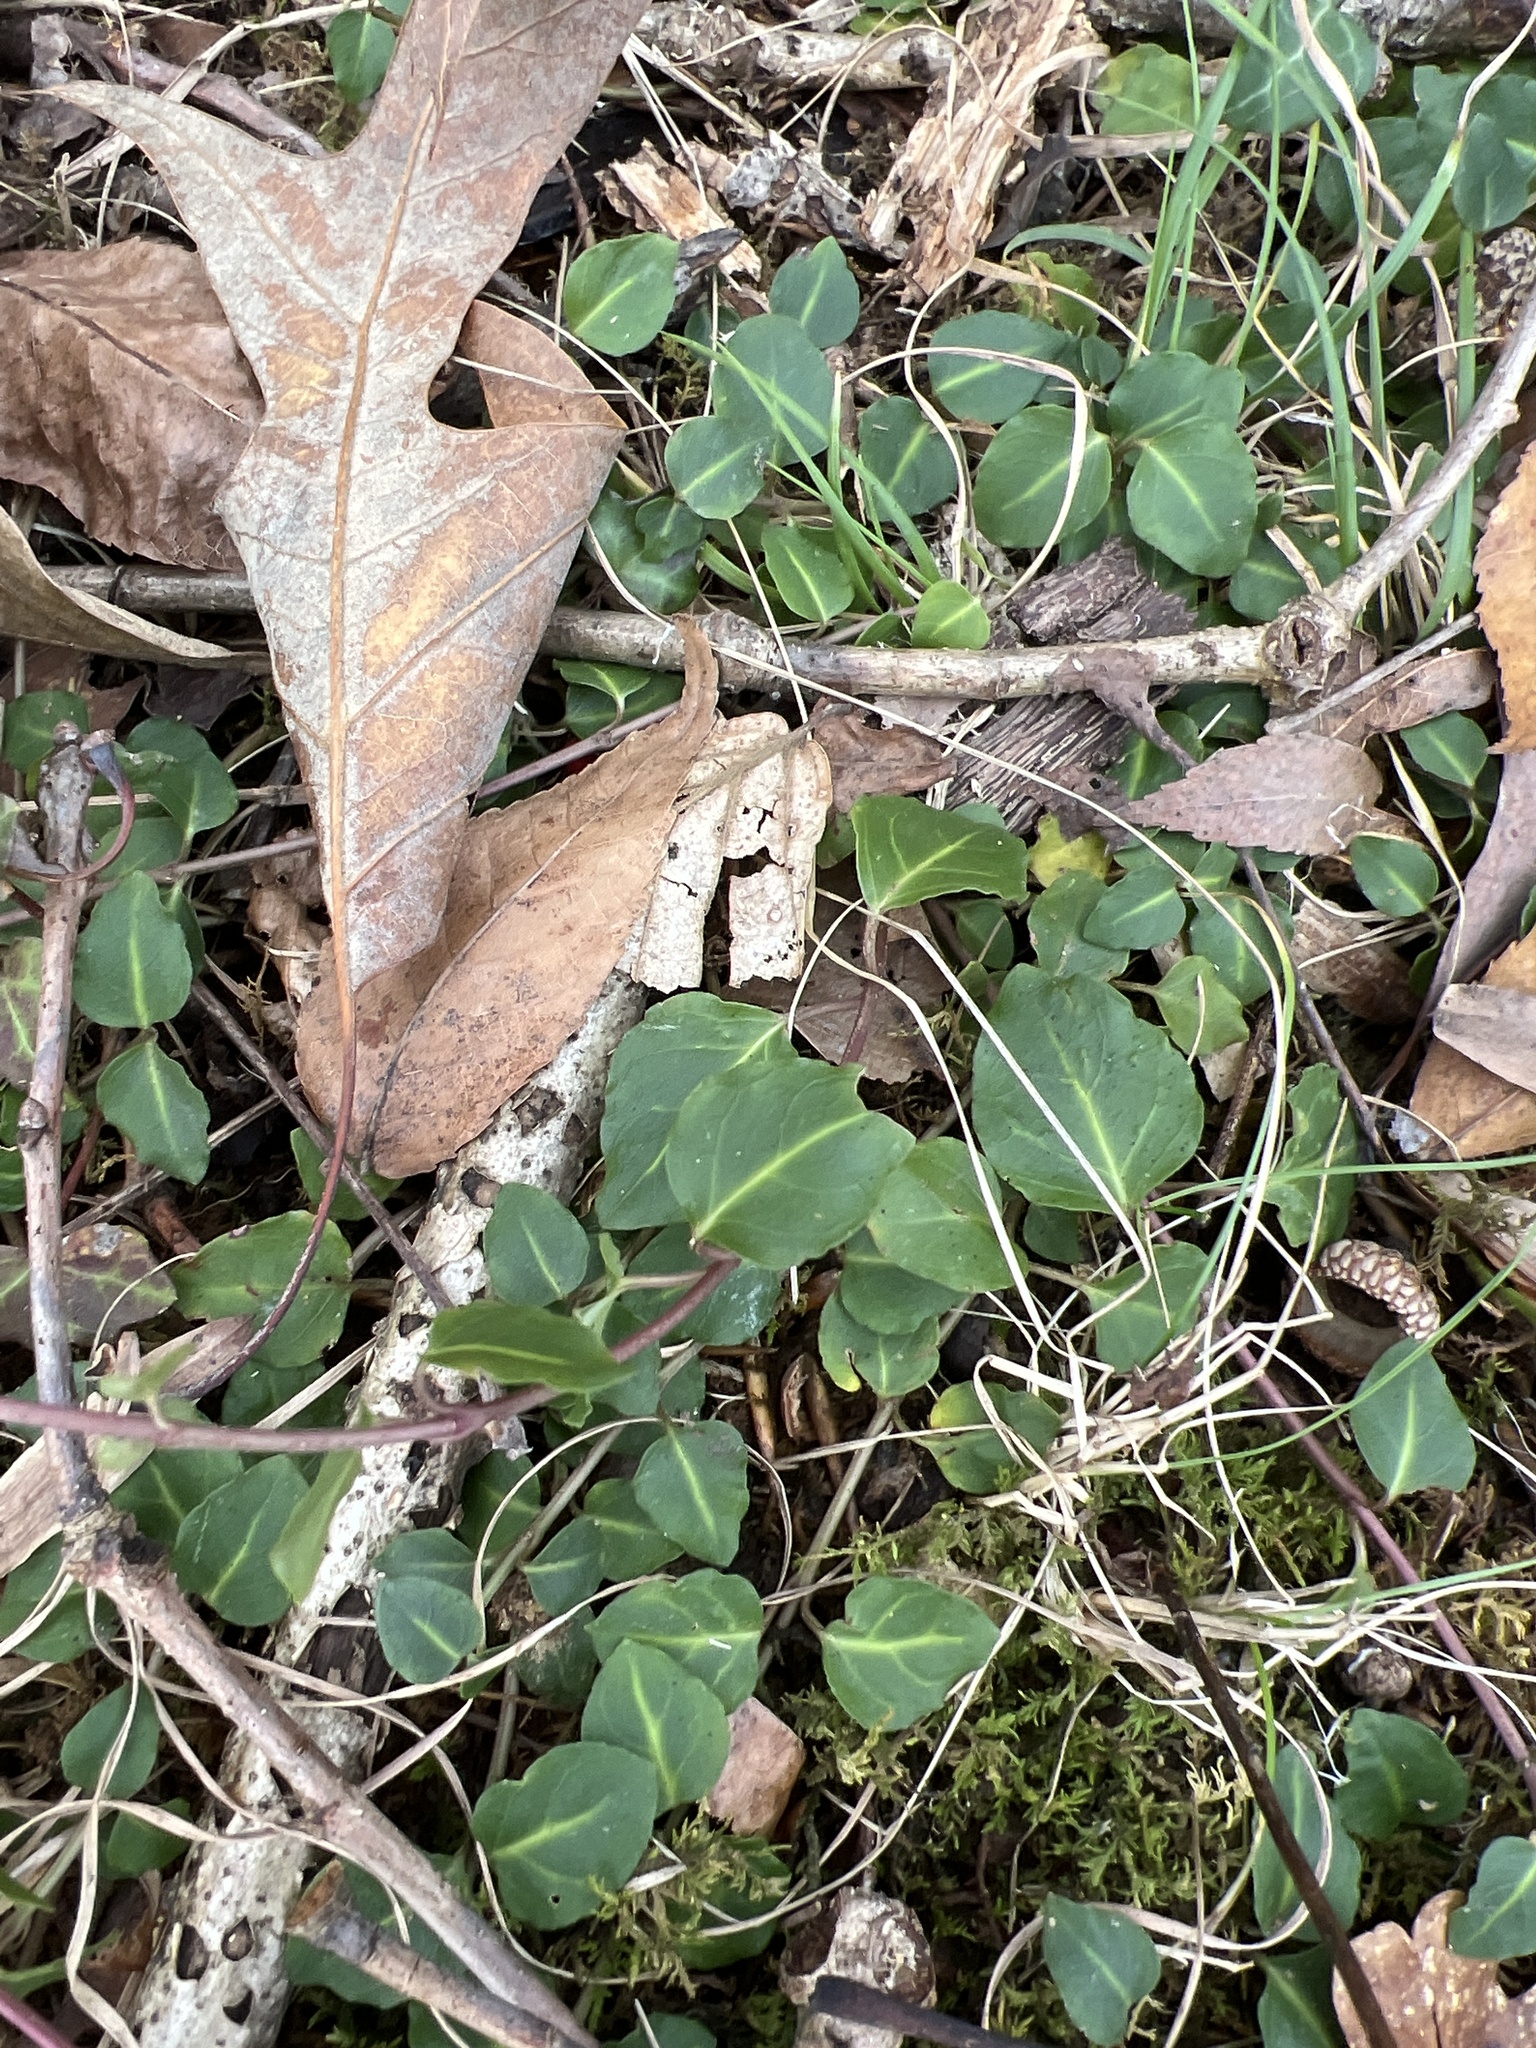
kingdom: Plantae
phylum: Tracheophyta
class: Magnoliopsida
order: Gentianales
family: Rubiaceae
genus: Mitchella
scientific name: Mitchella repens
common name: Partridge-berry
